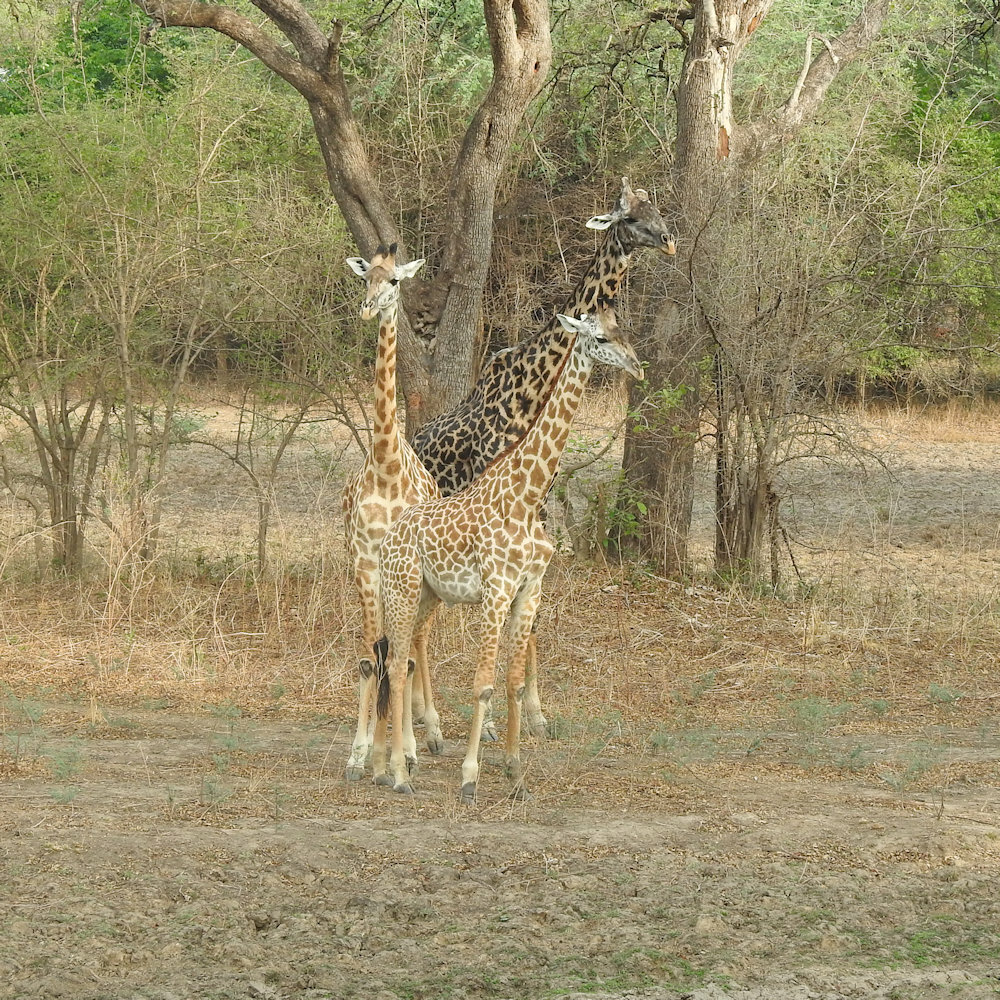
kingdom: Animalia
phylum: Chordata
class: Mammalia
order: Artiodactyla
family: Giraffidae
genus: Giraffa
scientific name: Giraffa tippelskirchi
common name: Masai giraffe
